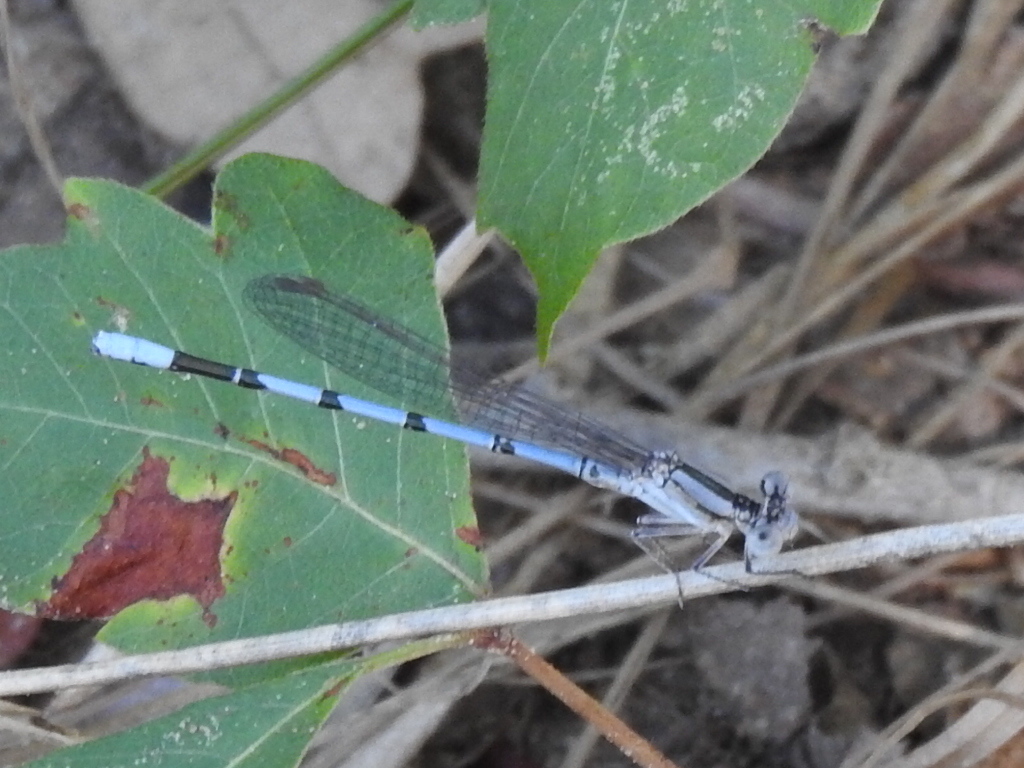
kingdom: Animalia
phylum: Arthropoda
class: Insecta
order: Odonata
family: Coenagrionidae
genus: Argia
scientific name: Argia nahuana
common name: Aztec dancer
